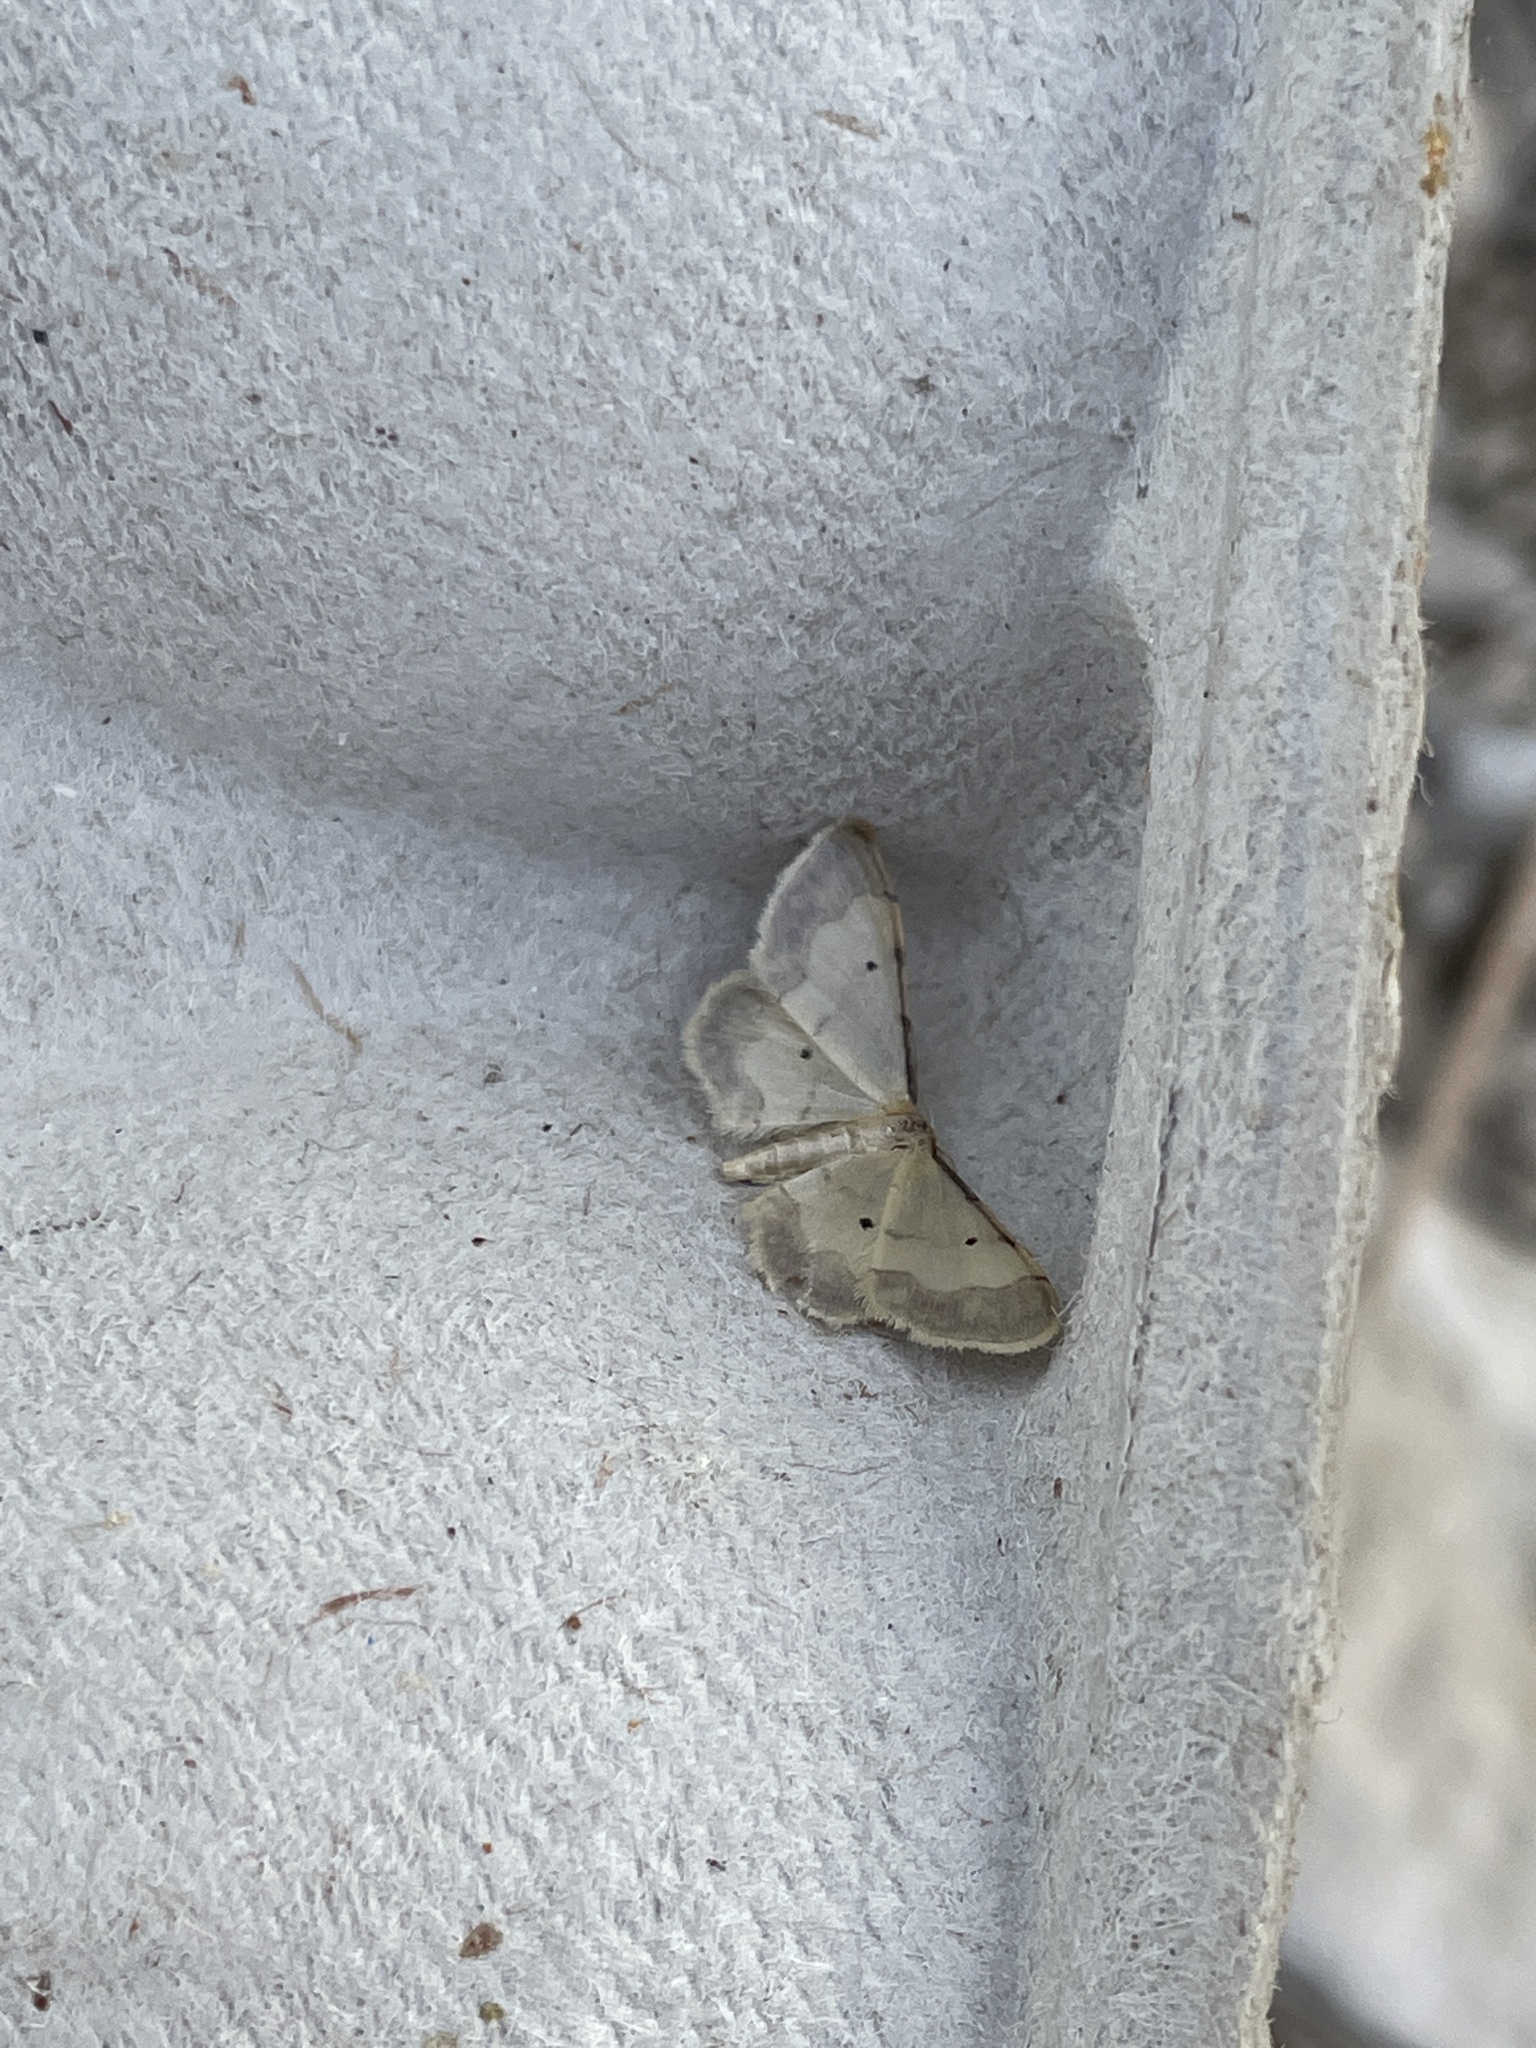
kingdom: Animalia
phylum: Arthropoda
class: Insecta
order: Lepidoptera
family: Geometridae
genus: Idaea
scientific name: Idaea politaria
